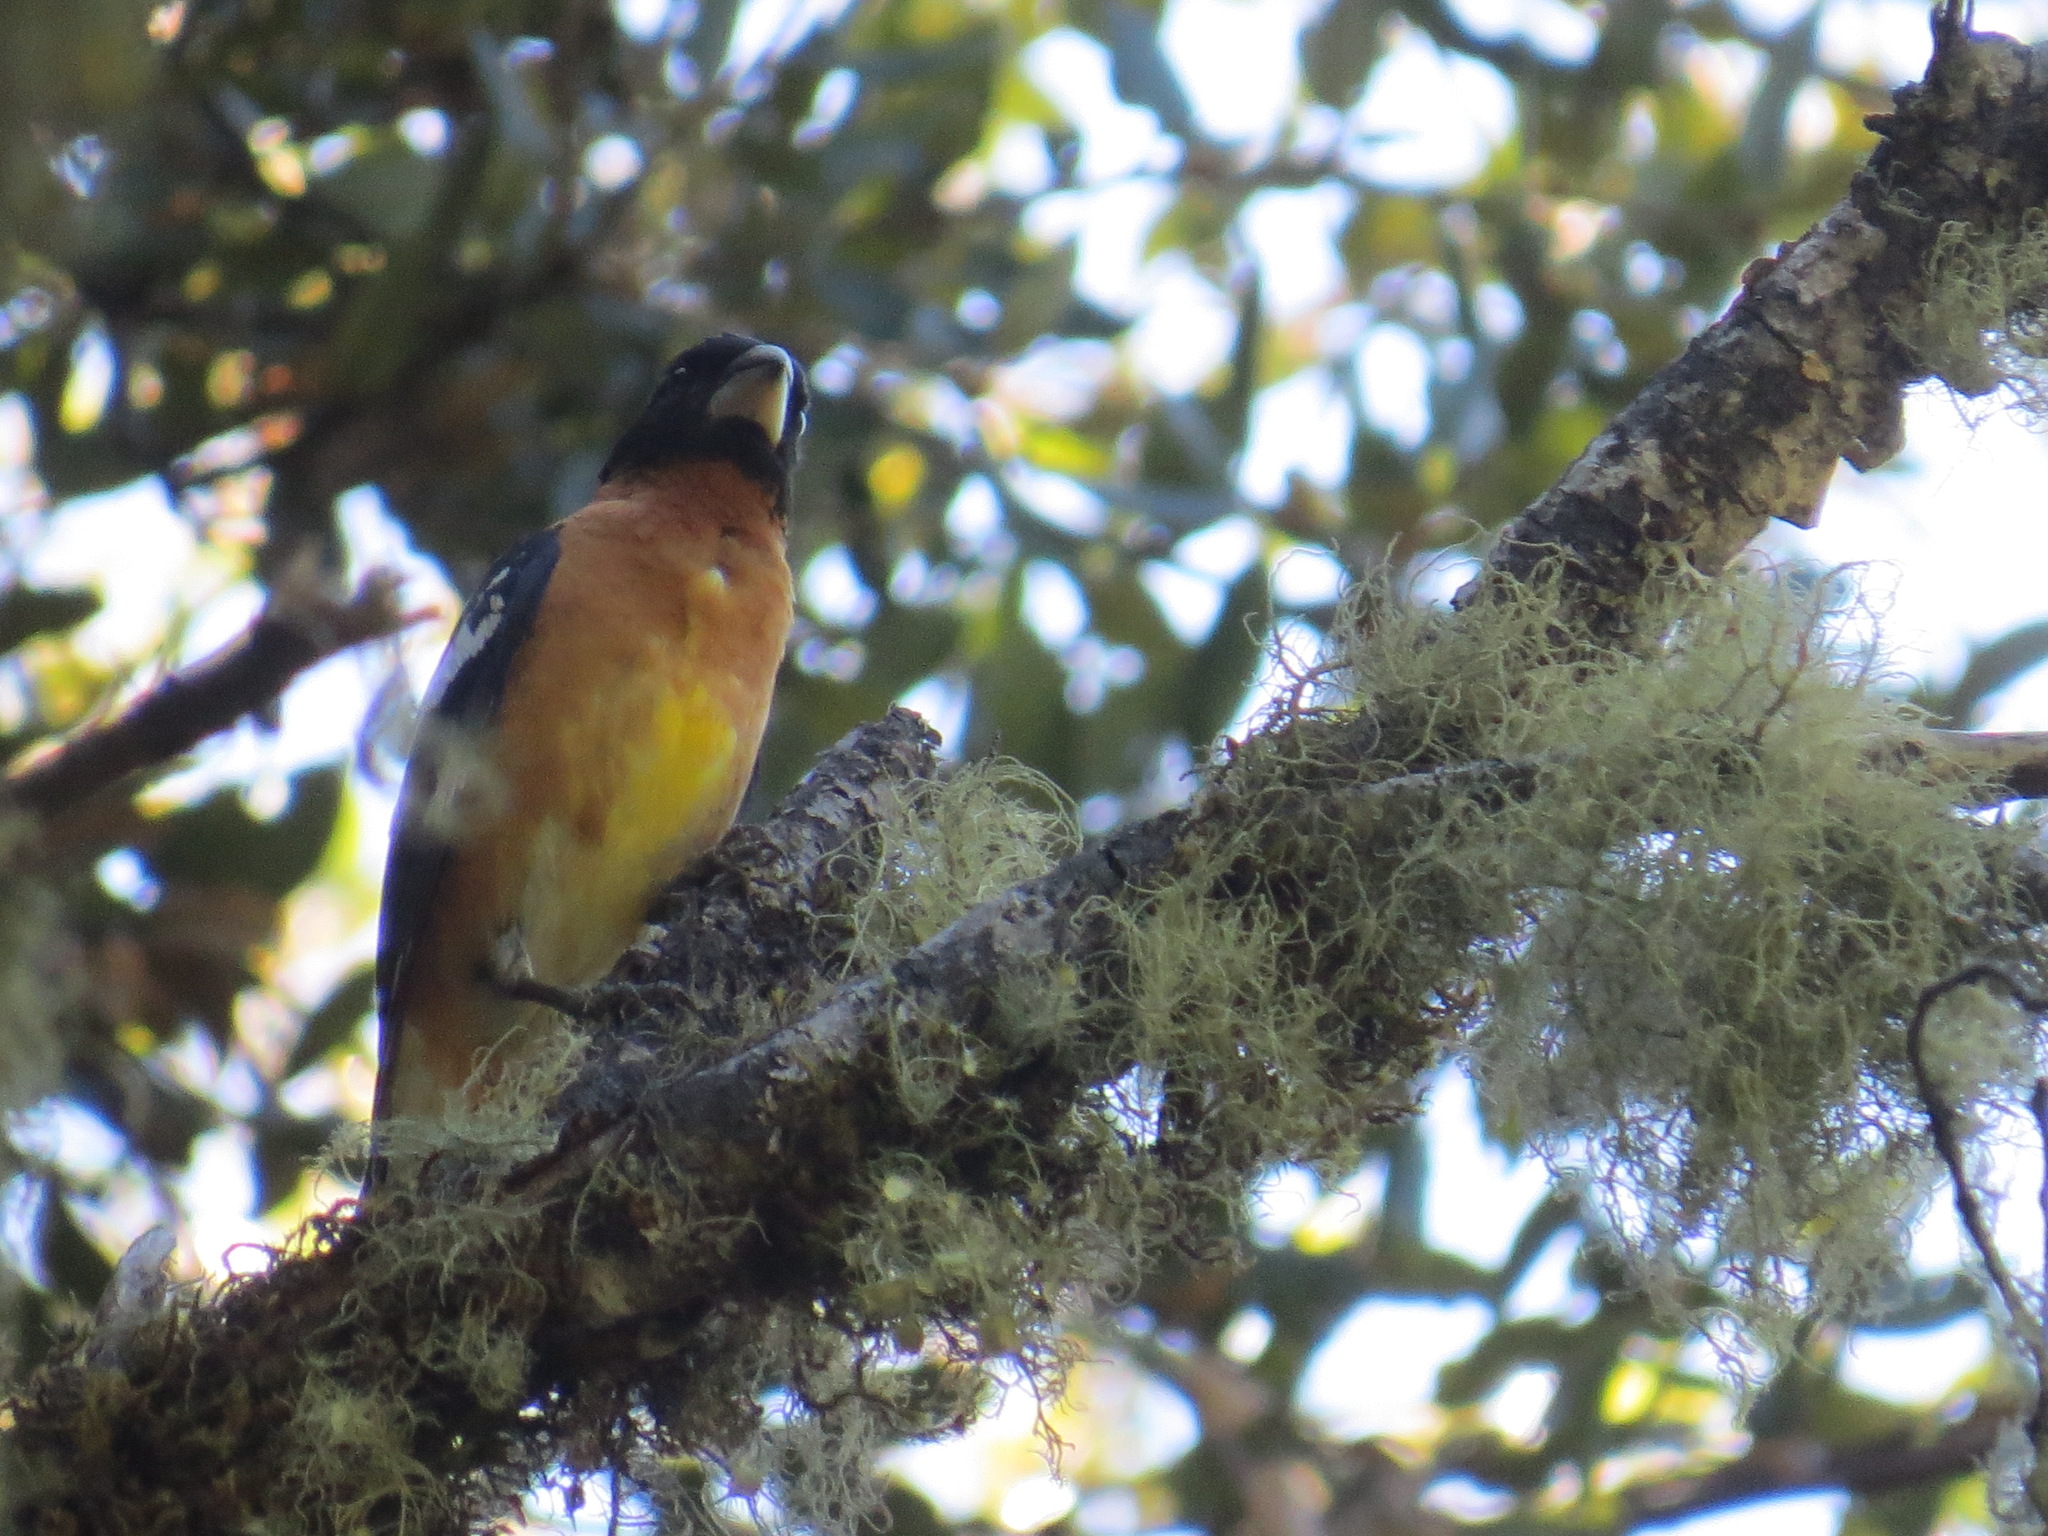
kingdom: Animalia
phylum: Chordata
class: Aves
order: Passeriformes
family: Cardinalidae
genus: Pheucticus
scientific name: Pheucticus melanocephalus
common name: Black-headed grosbeak
